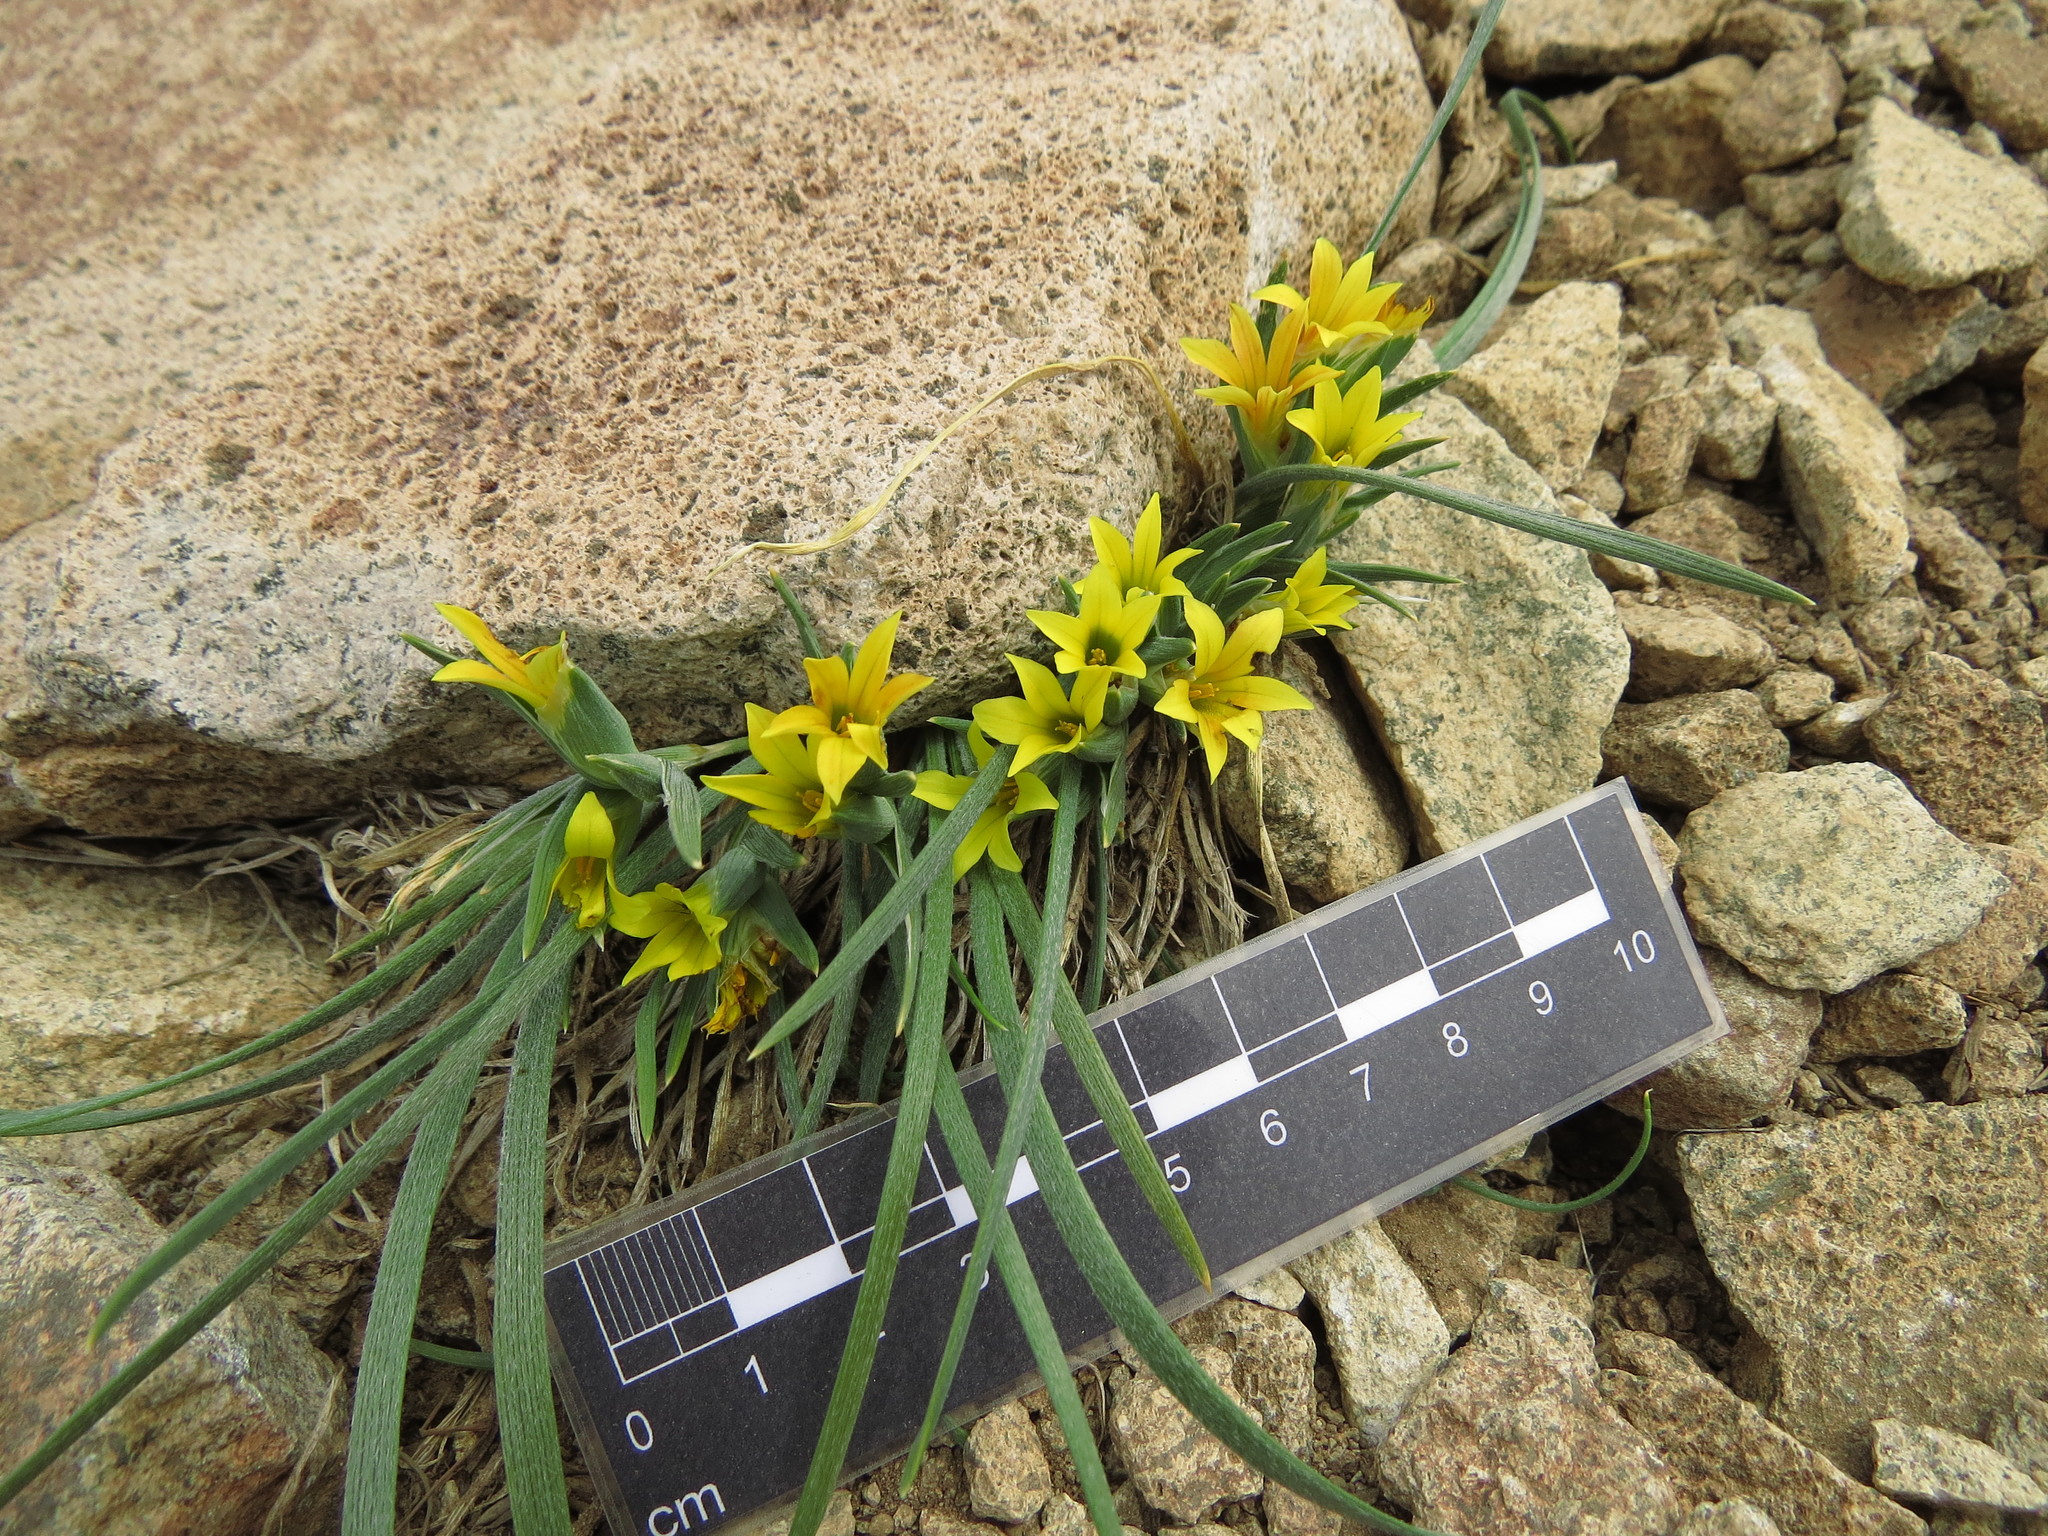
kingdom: Plantae
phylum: Tracheophyta
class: Liliopsida
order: Asparagales
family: Iridaceae
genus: Olsynium
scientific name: Olsynium chrysochromum
